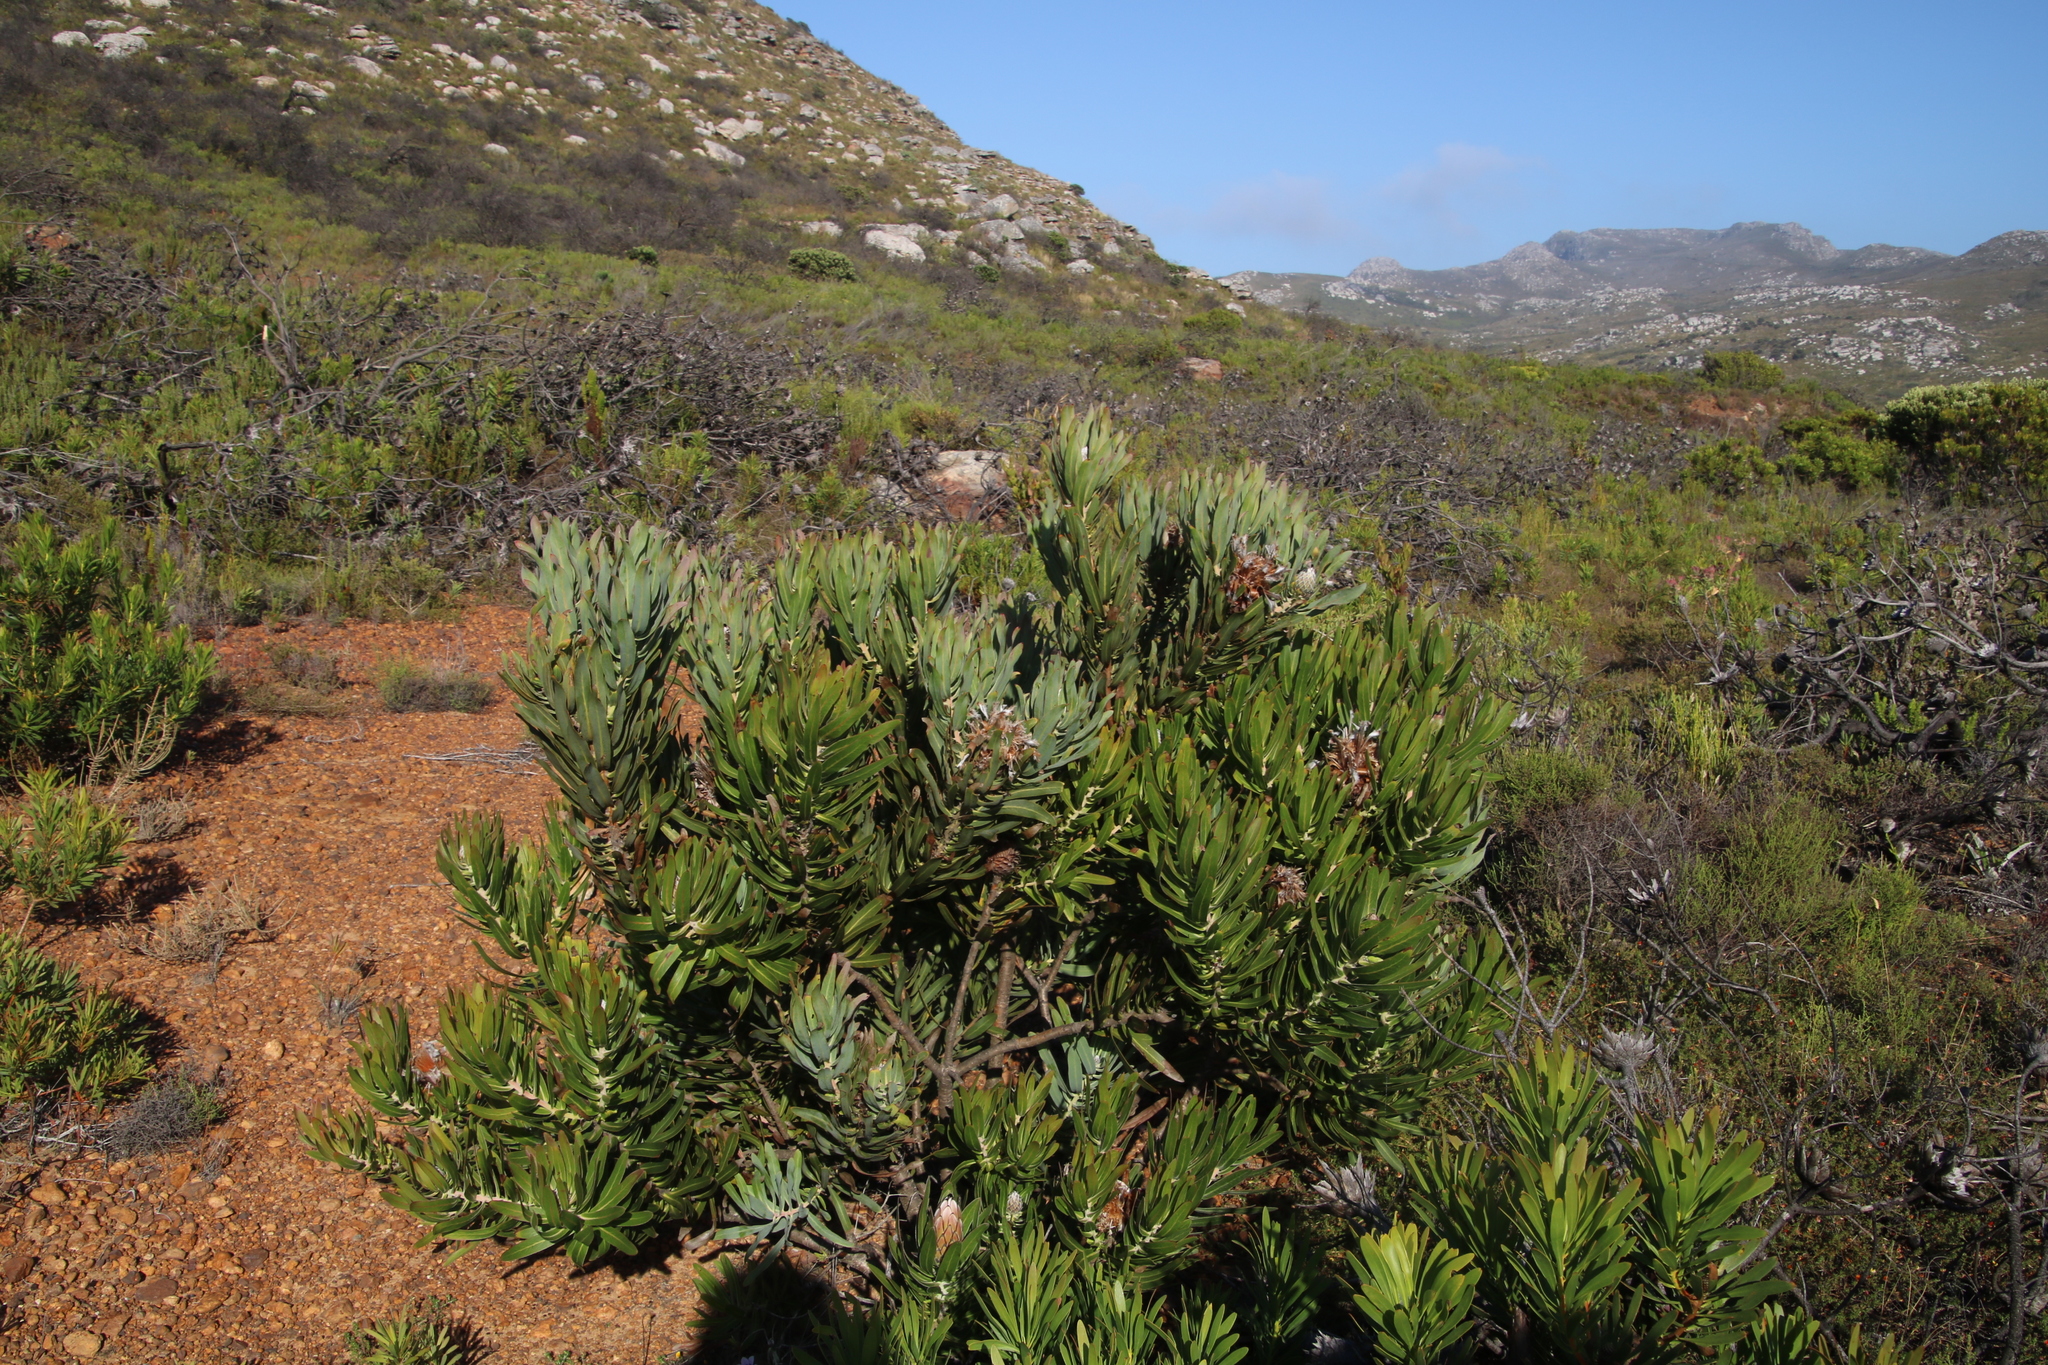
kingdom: Plantae
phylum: Tracheophyta
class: Magnoliopsida
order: Proteales
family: Proteaceae
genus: Protea
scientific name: Protea
